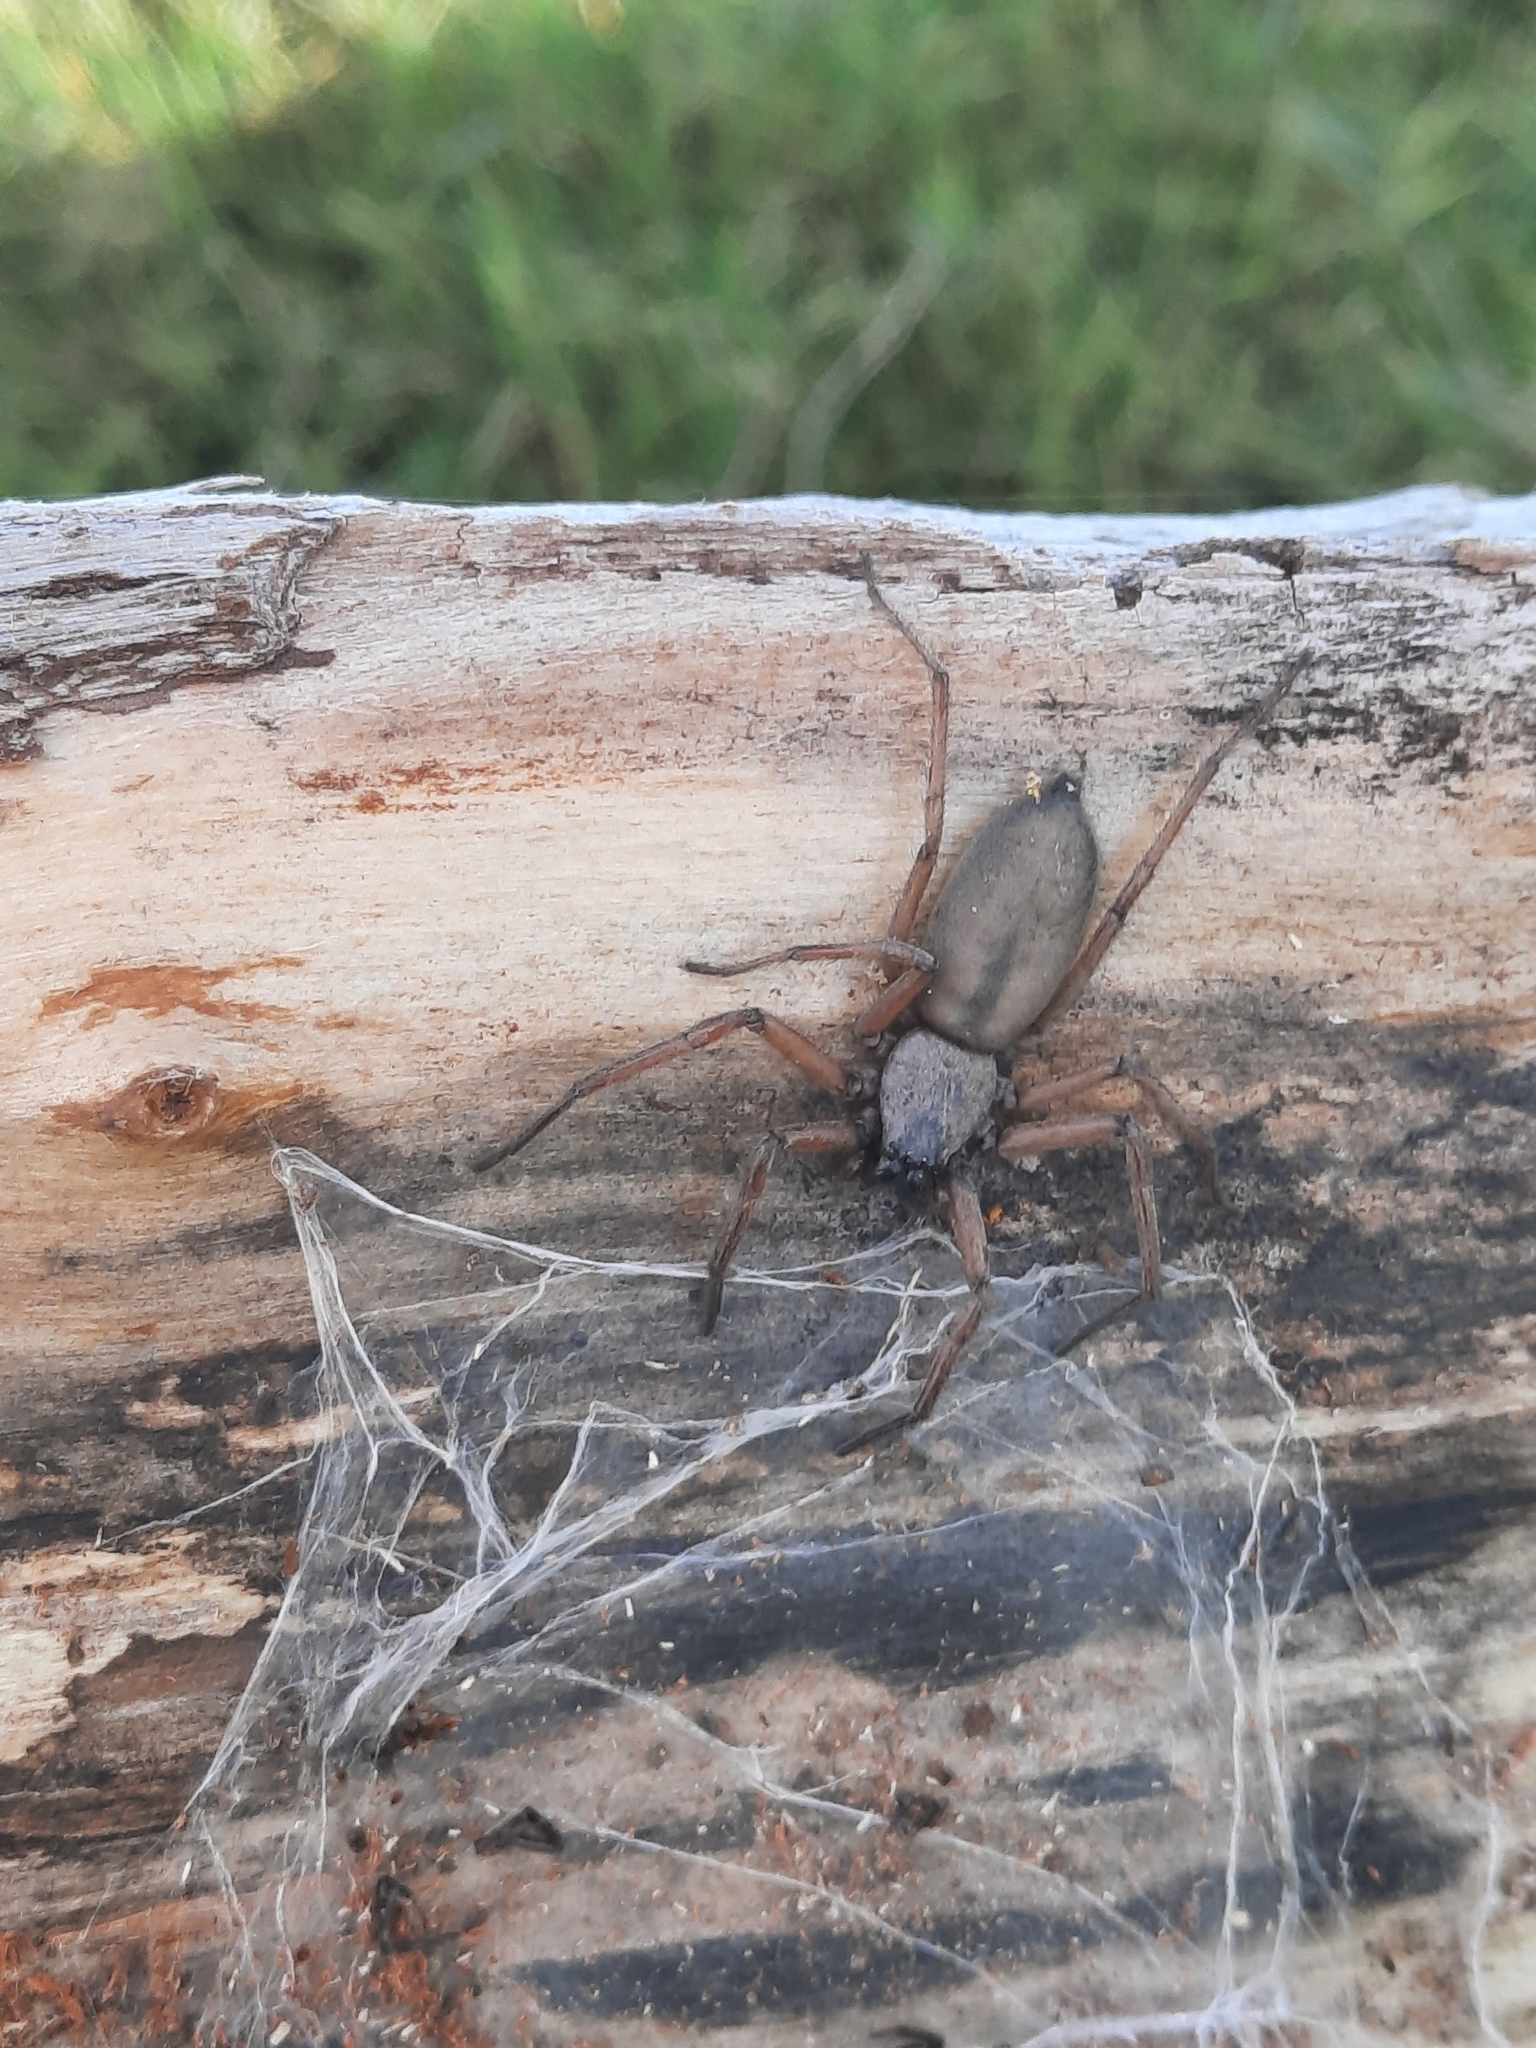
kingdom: Animalia
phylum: Arthropoda
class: Arachnida
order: Araneae
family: Trochanteriidae
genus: Hemicloea
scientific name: Hemicloea rogenhoferi
